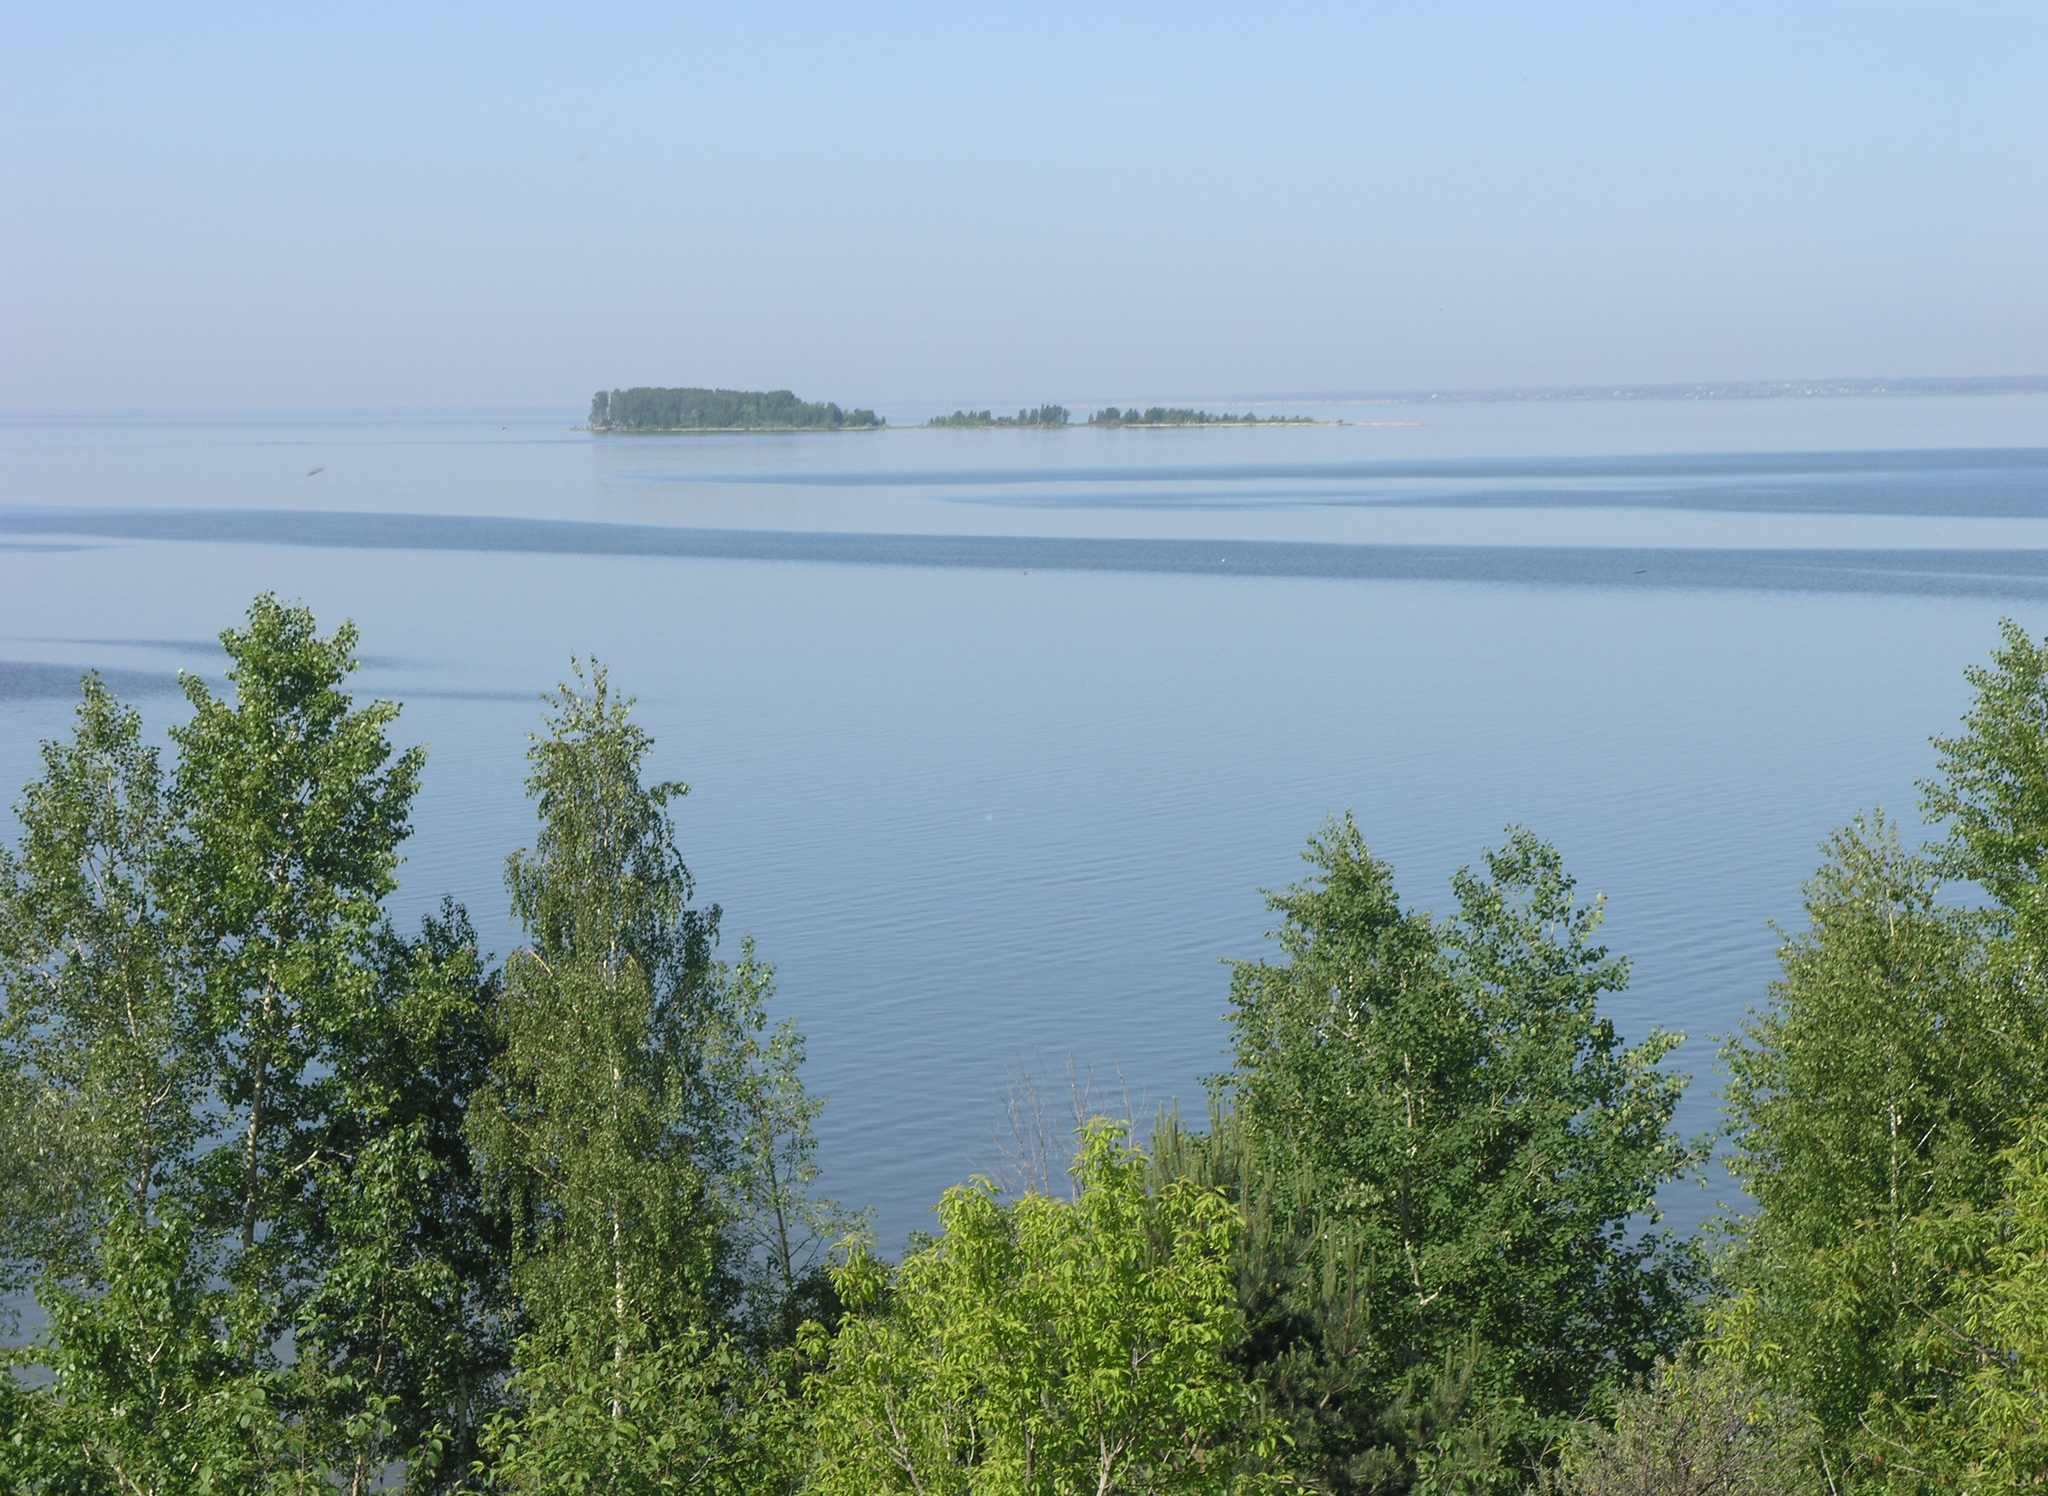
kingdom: Plantae
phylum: Tracheophyta
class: Magnoliopsida
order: Fagales
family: Betulaceae
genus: Betula
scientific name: Betula pendula
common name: Silver birch
